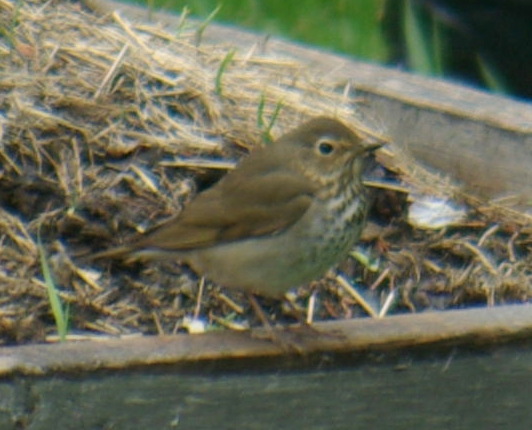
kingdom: Animalia
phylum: Chordata
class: Aves
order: Passeriformes
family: Turdidae
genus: Catharus
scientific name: Catharus ustulatus
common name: Swainson's thrush
